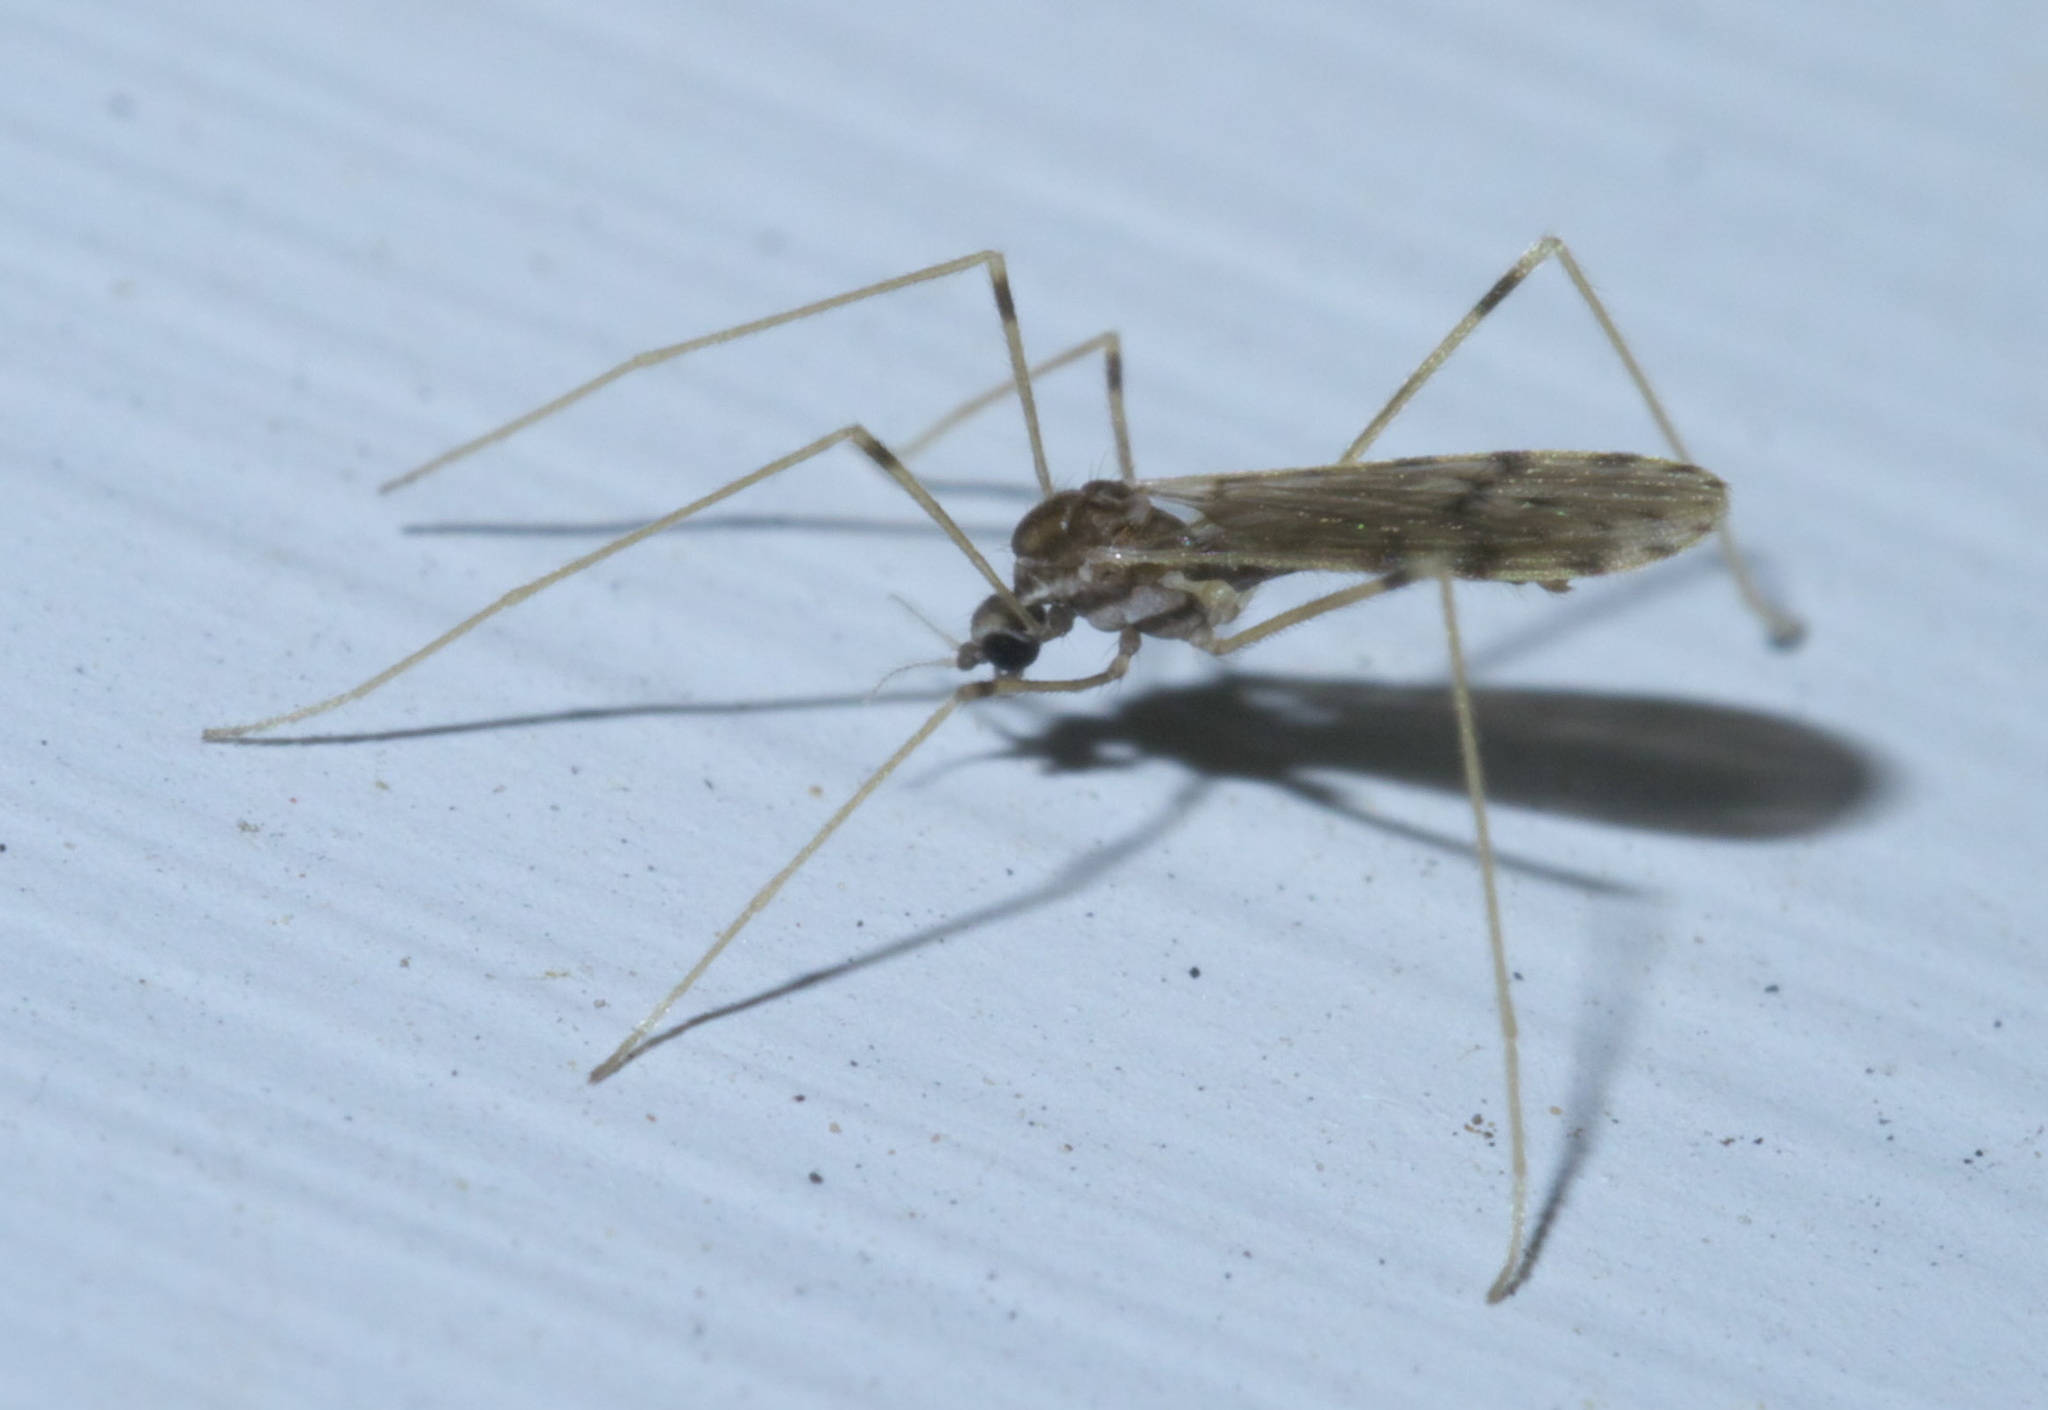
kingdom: Animalia
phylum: Arthropoda
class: Insecta
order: Diptera
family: Limoniidae
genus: Erioptera
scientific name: Erioptera parva
